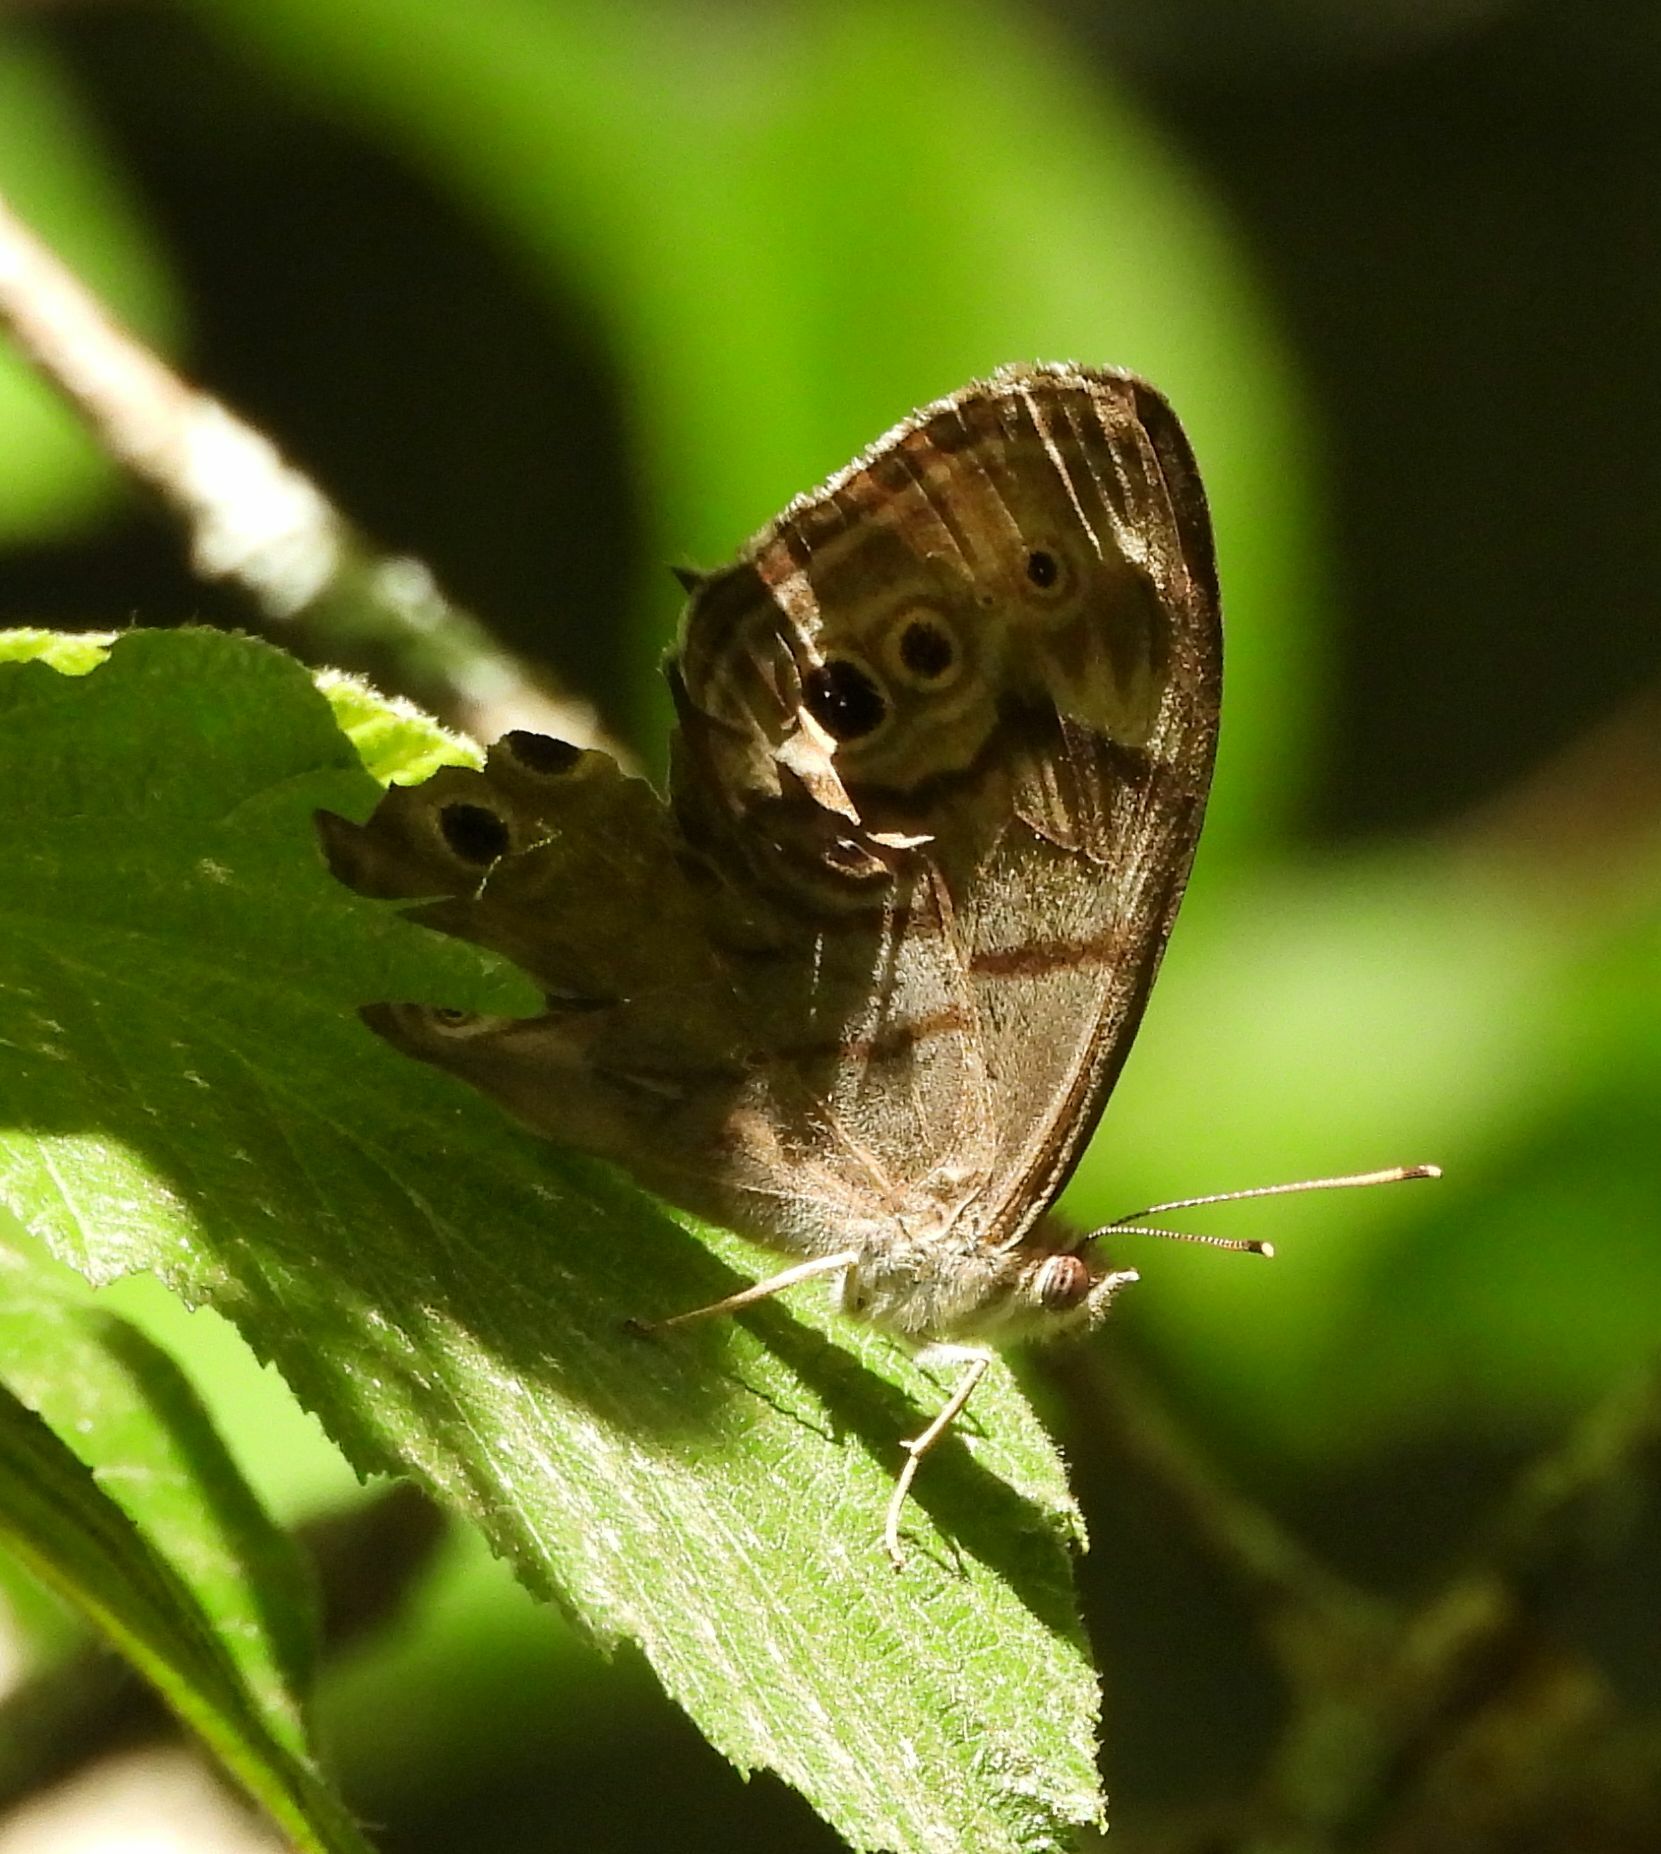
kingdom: Animalia
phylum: Arthropoda
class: Insecta
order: Lepidoptera
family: Nymphalidae
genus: Lethe
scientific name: Lethe anthedon
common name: Northern pearly-eye
